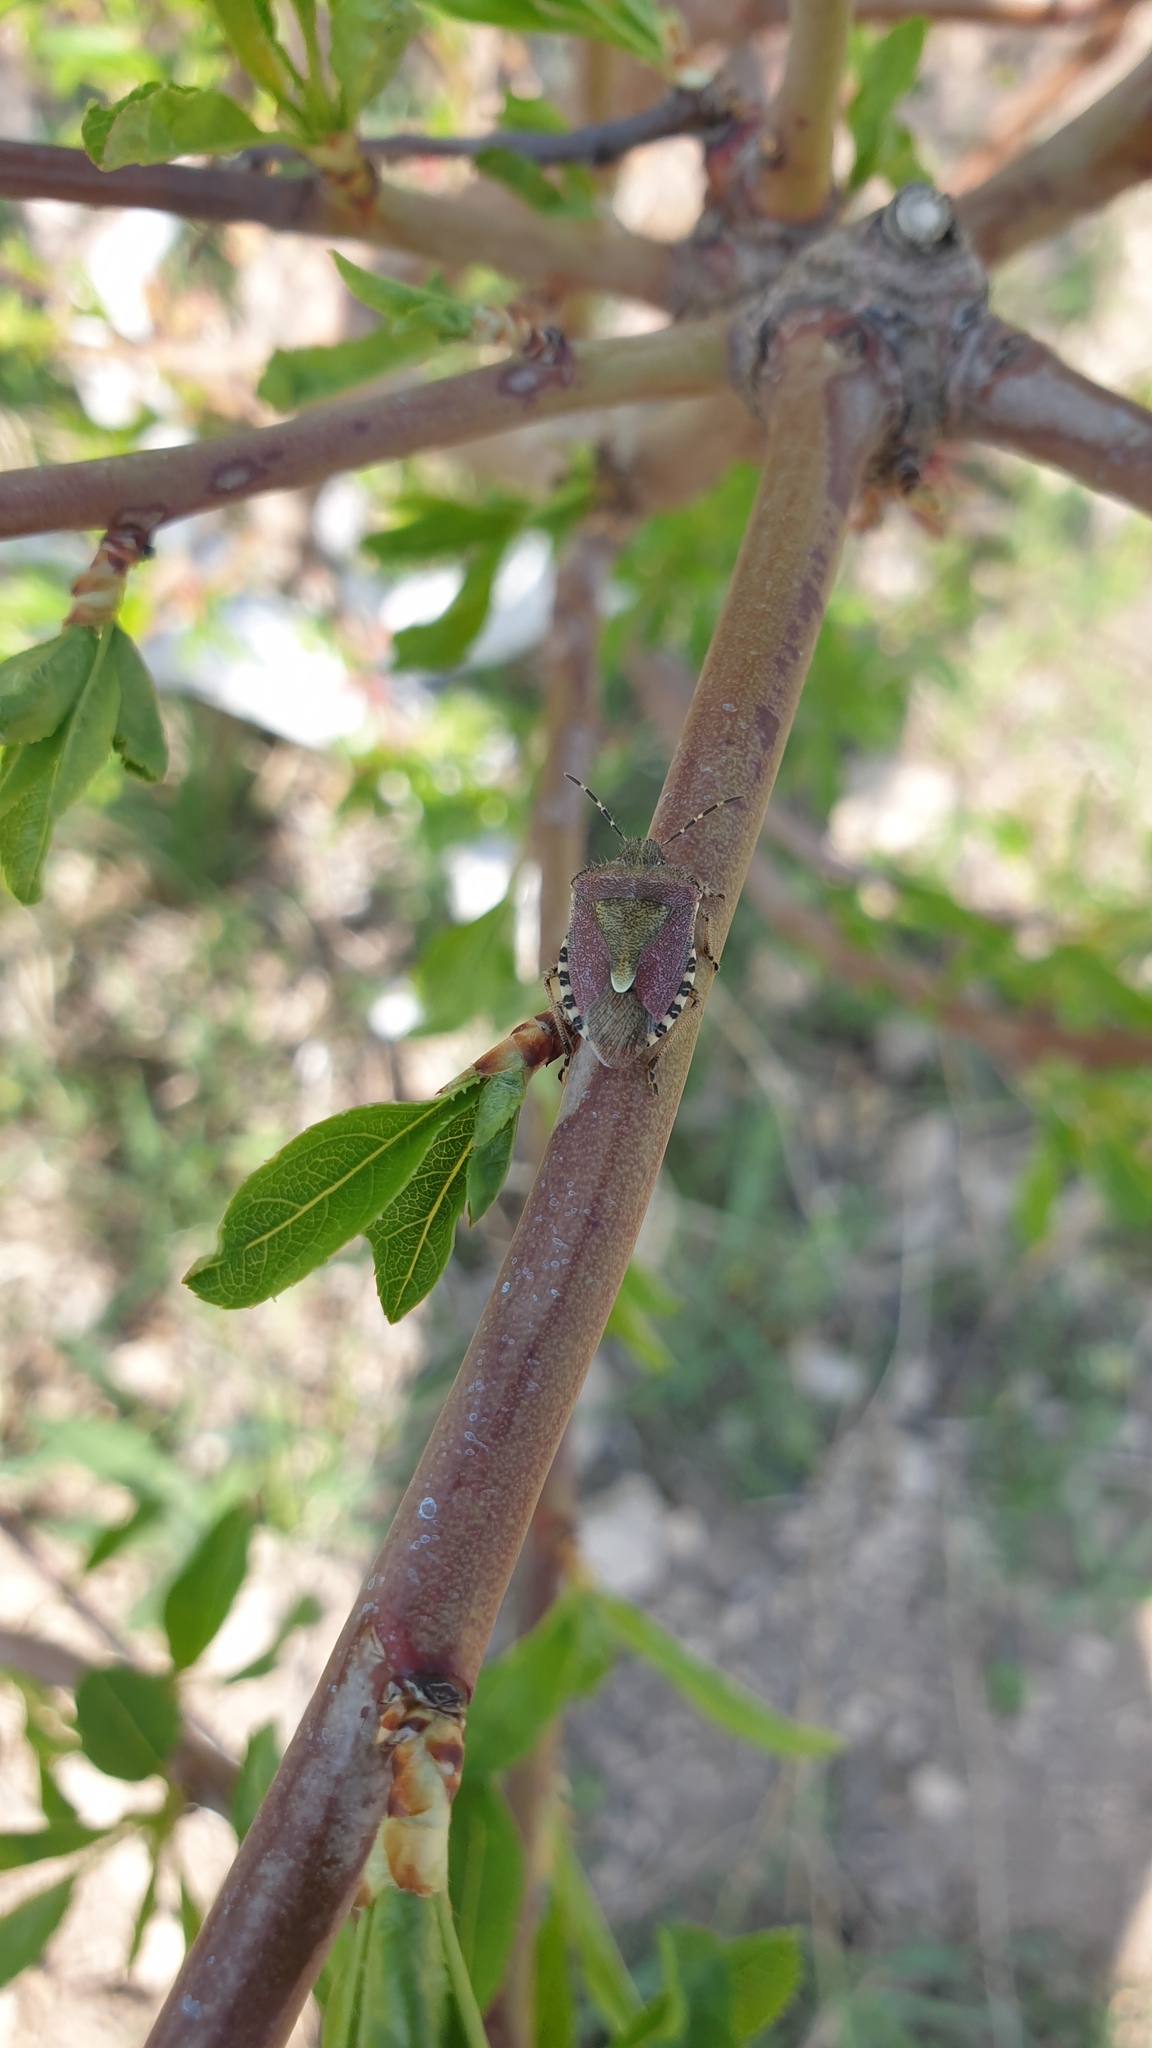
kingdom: Animalia
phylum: Arthropoda
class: Insecta
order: Hemiptera
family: Pentatomidae
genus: Dolycoris
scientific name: Dolycoris baccarum
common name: Sloe bug
